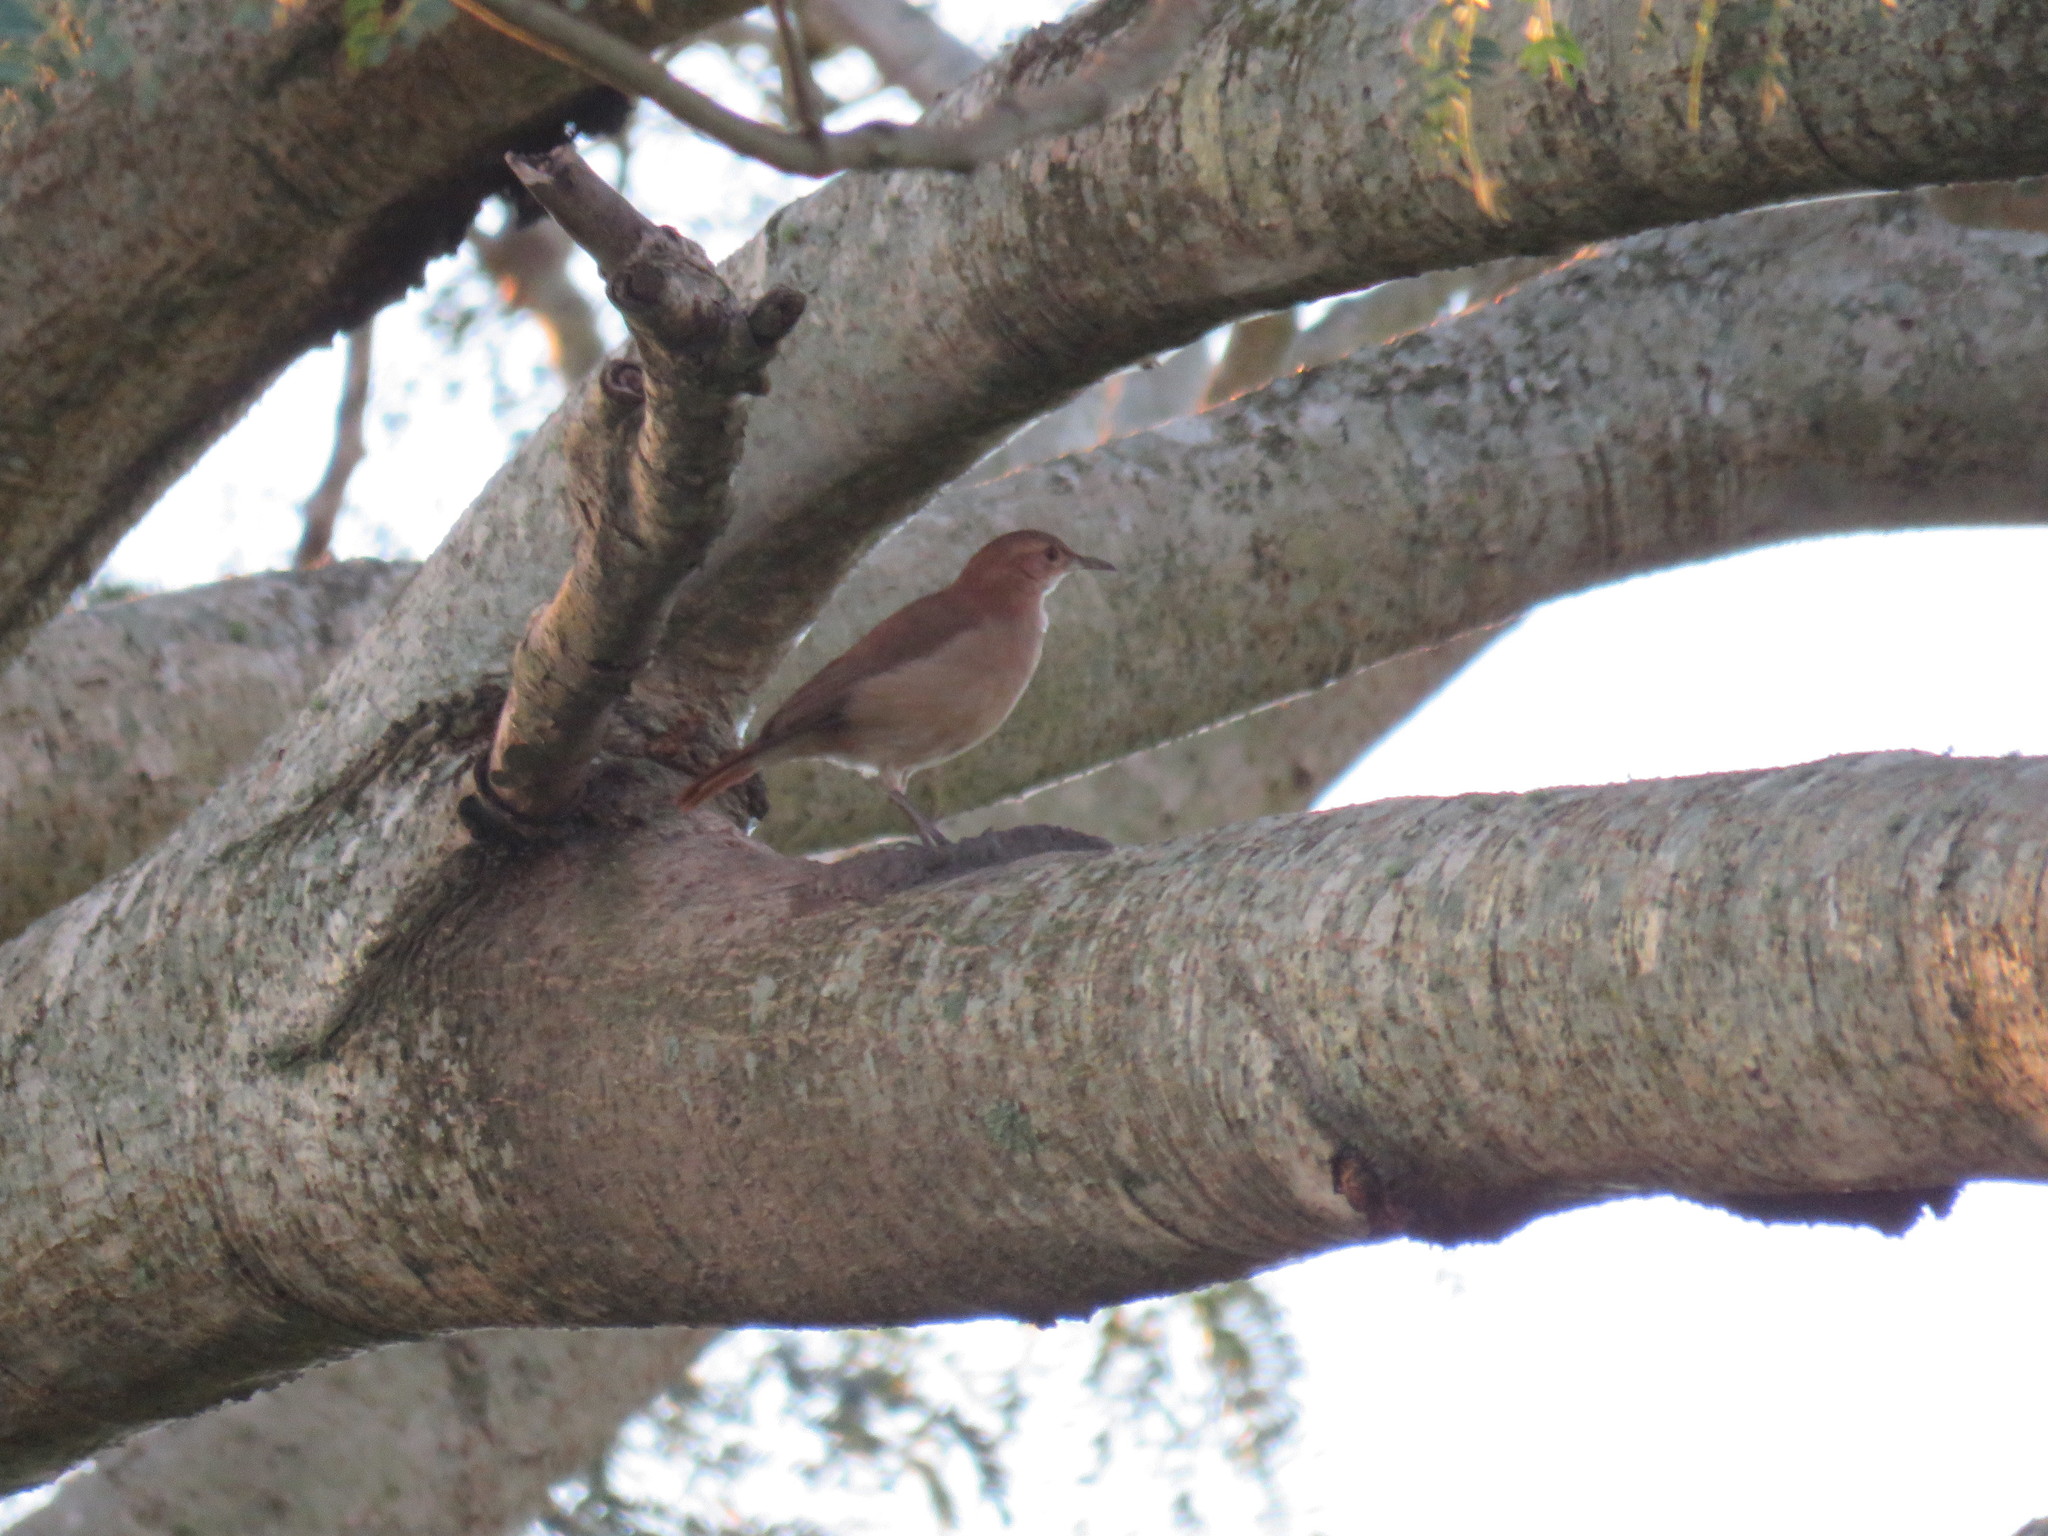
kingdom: Animalia
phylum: Chordata
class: Aves
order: Passeriformes
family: Furnariidae
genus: Furnarius
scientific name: Furnarius rufus
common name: Rufous hornero
